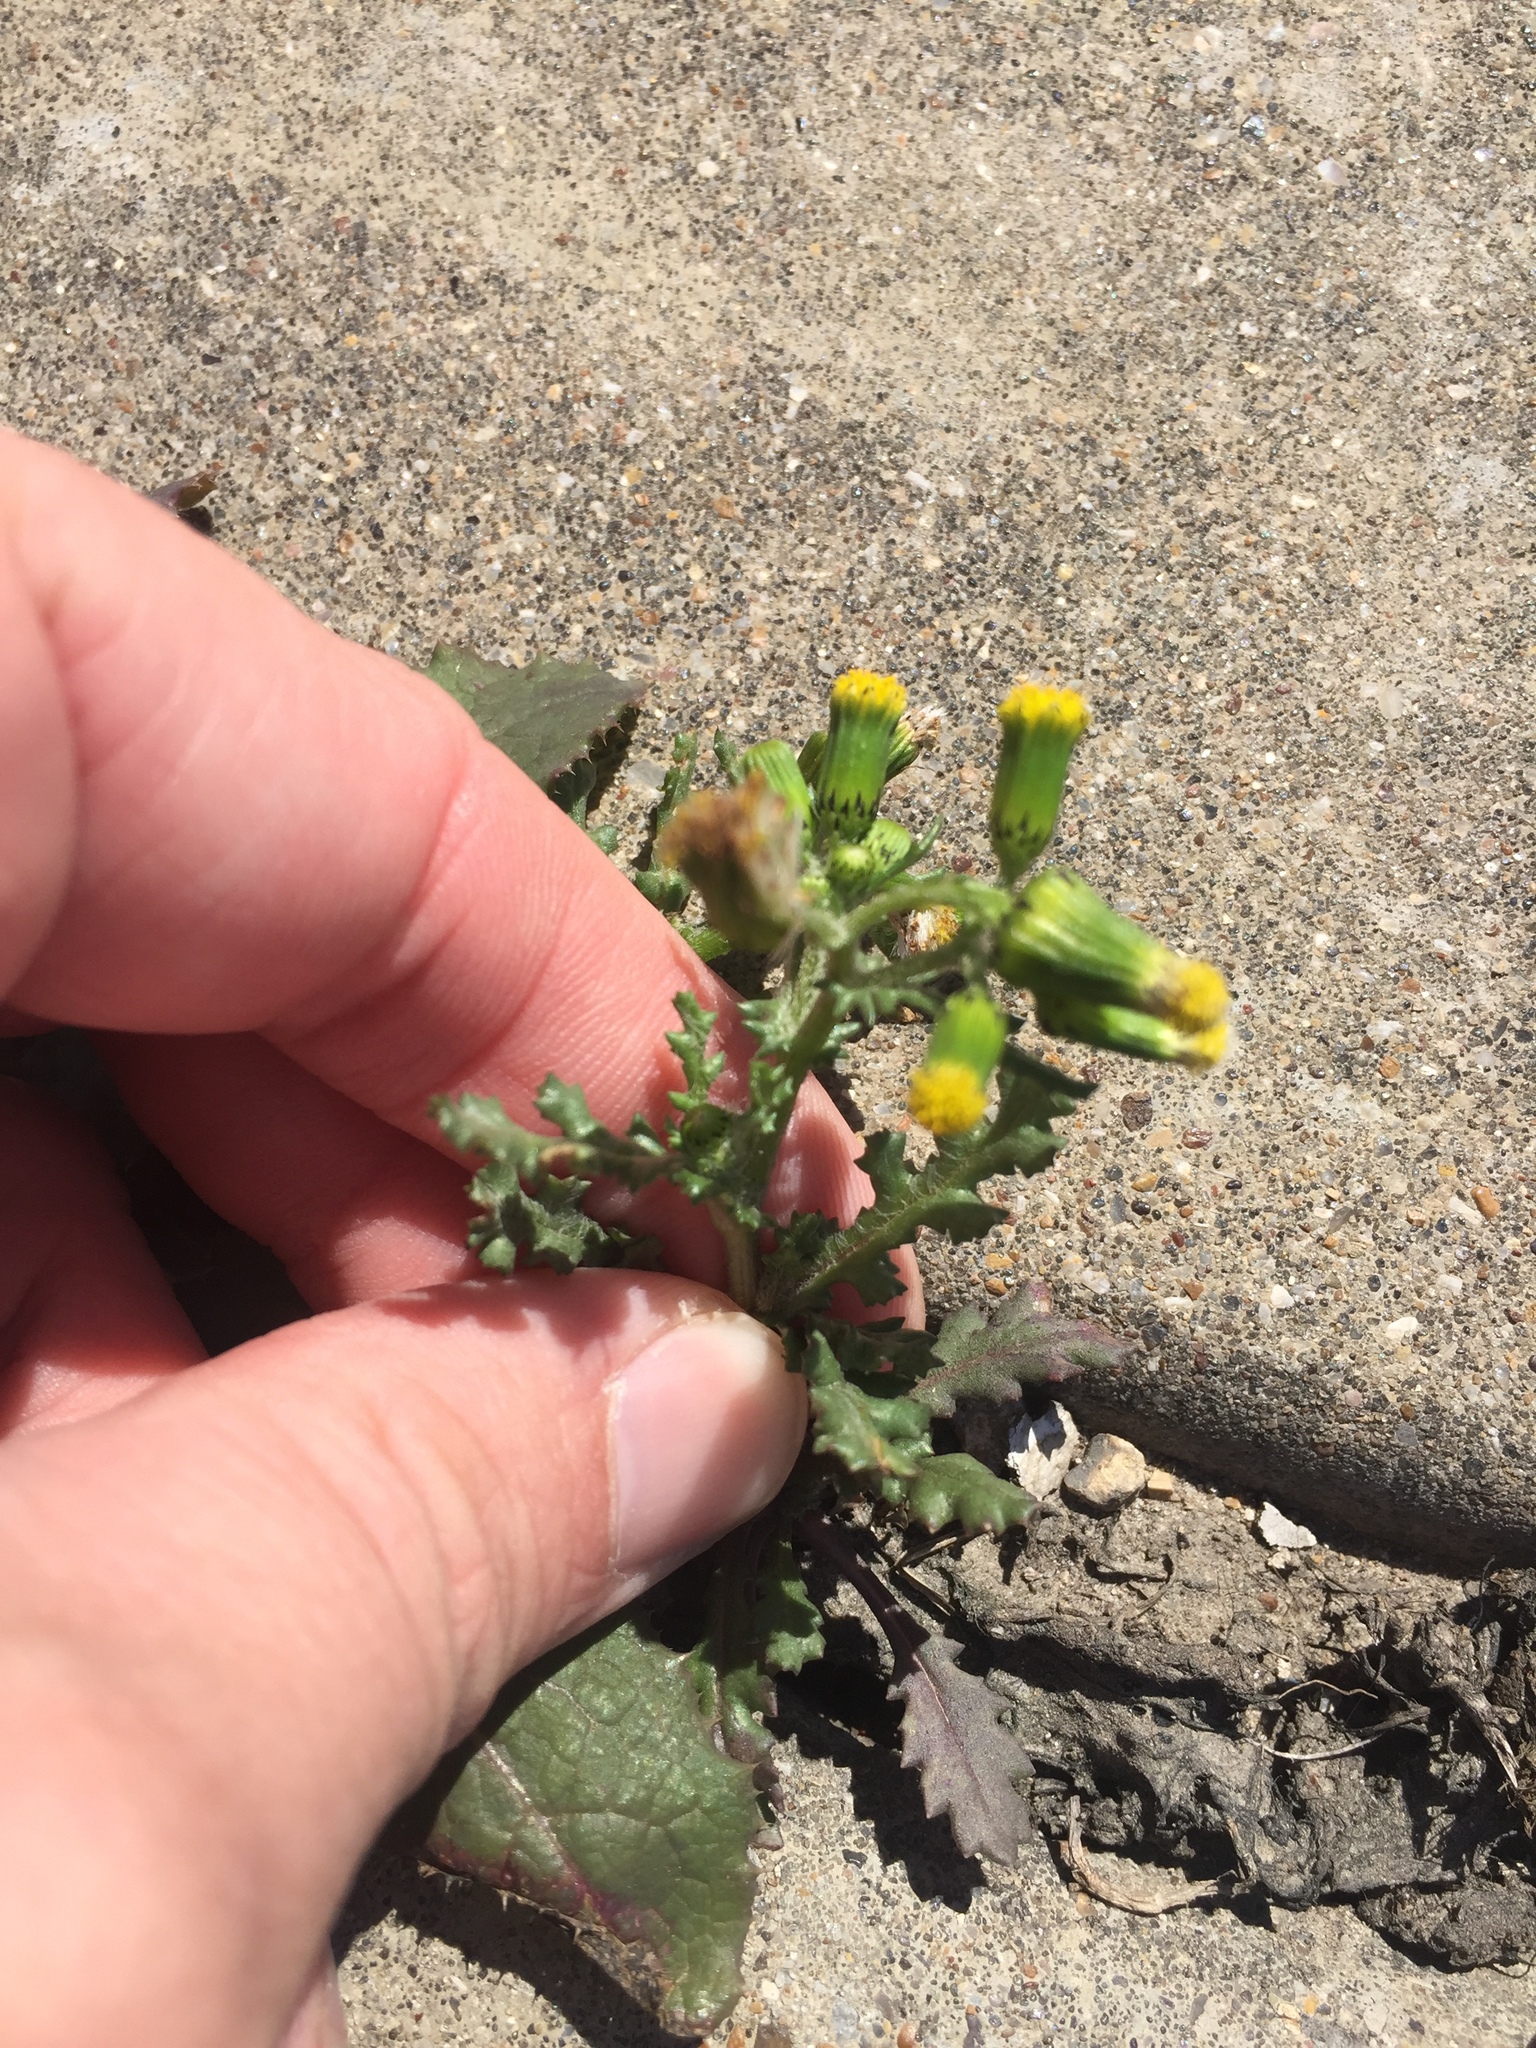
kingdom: Plantae
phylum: Tracheophyta
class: Magnoliopsida
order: Asterales
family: Asteraceae
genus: Senecio
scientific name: Senecio vulgaris
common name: Old-man-in-the-spring
